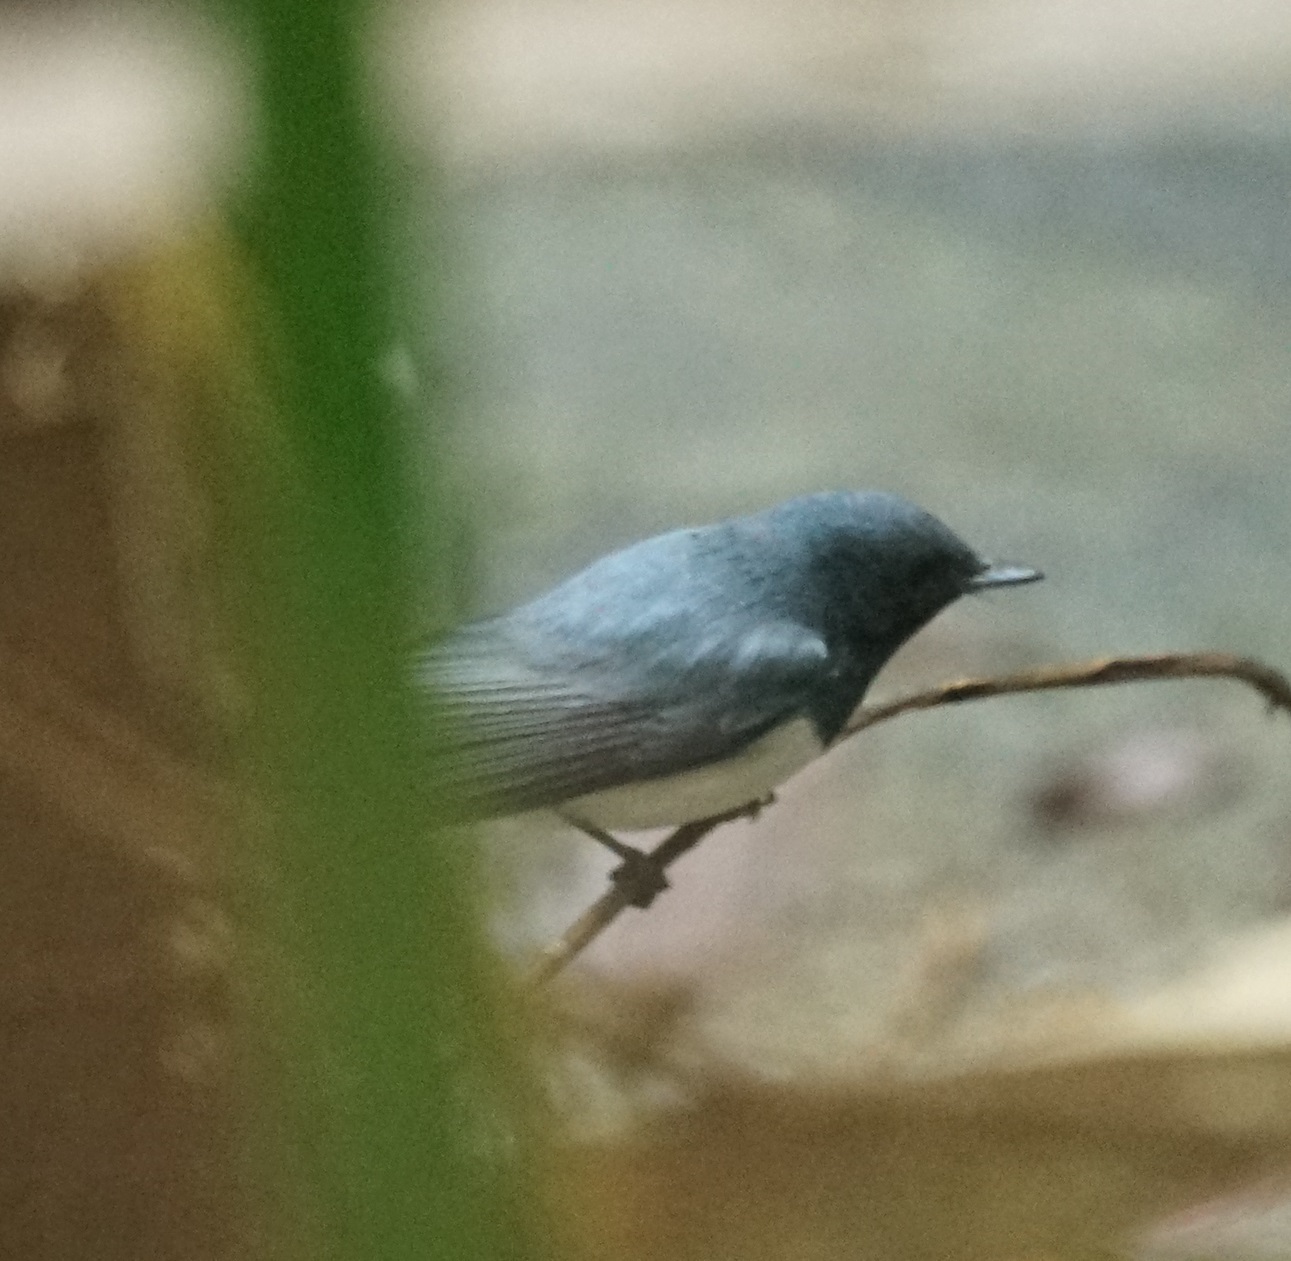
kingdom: Animalia
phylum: Chordata
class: Aves
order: Passeriformes
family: Monarchidae
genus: Myiagra
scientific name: Myiagra rubecula
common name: Leaden flycatcher
